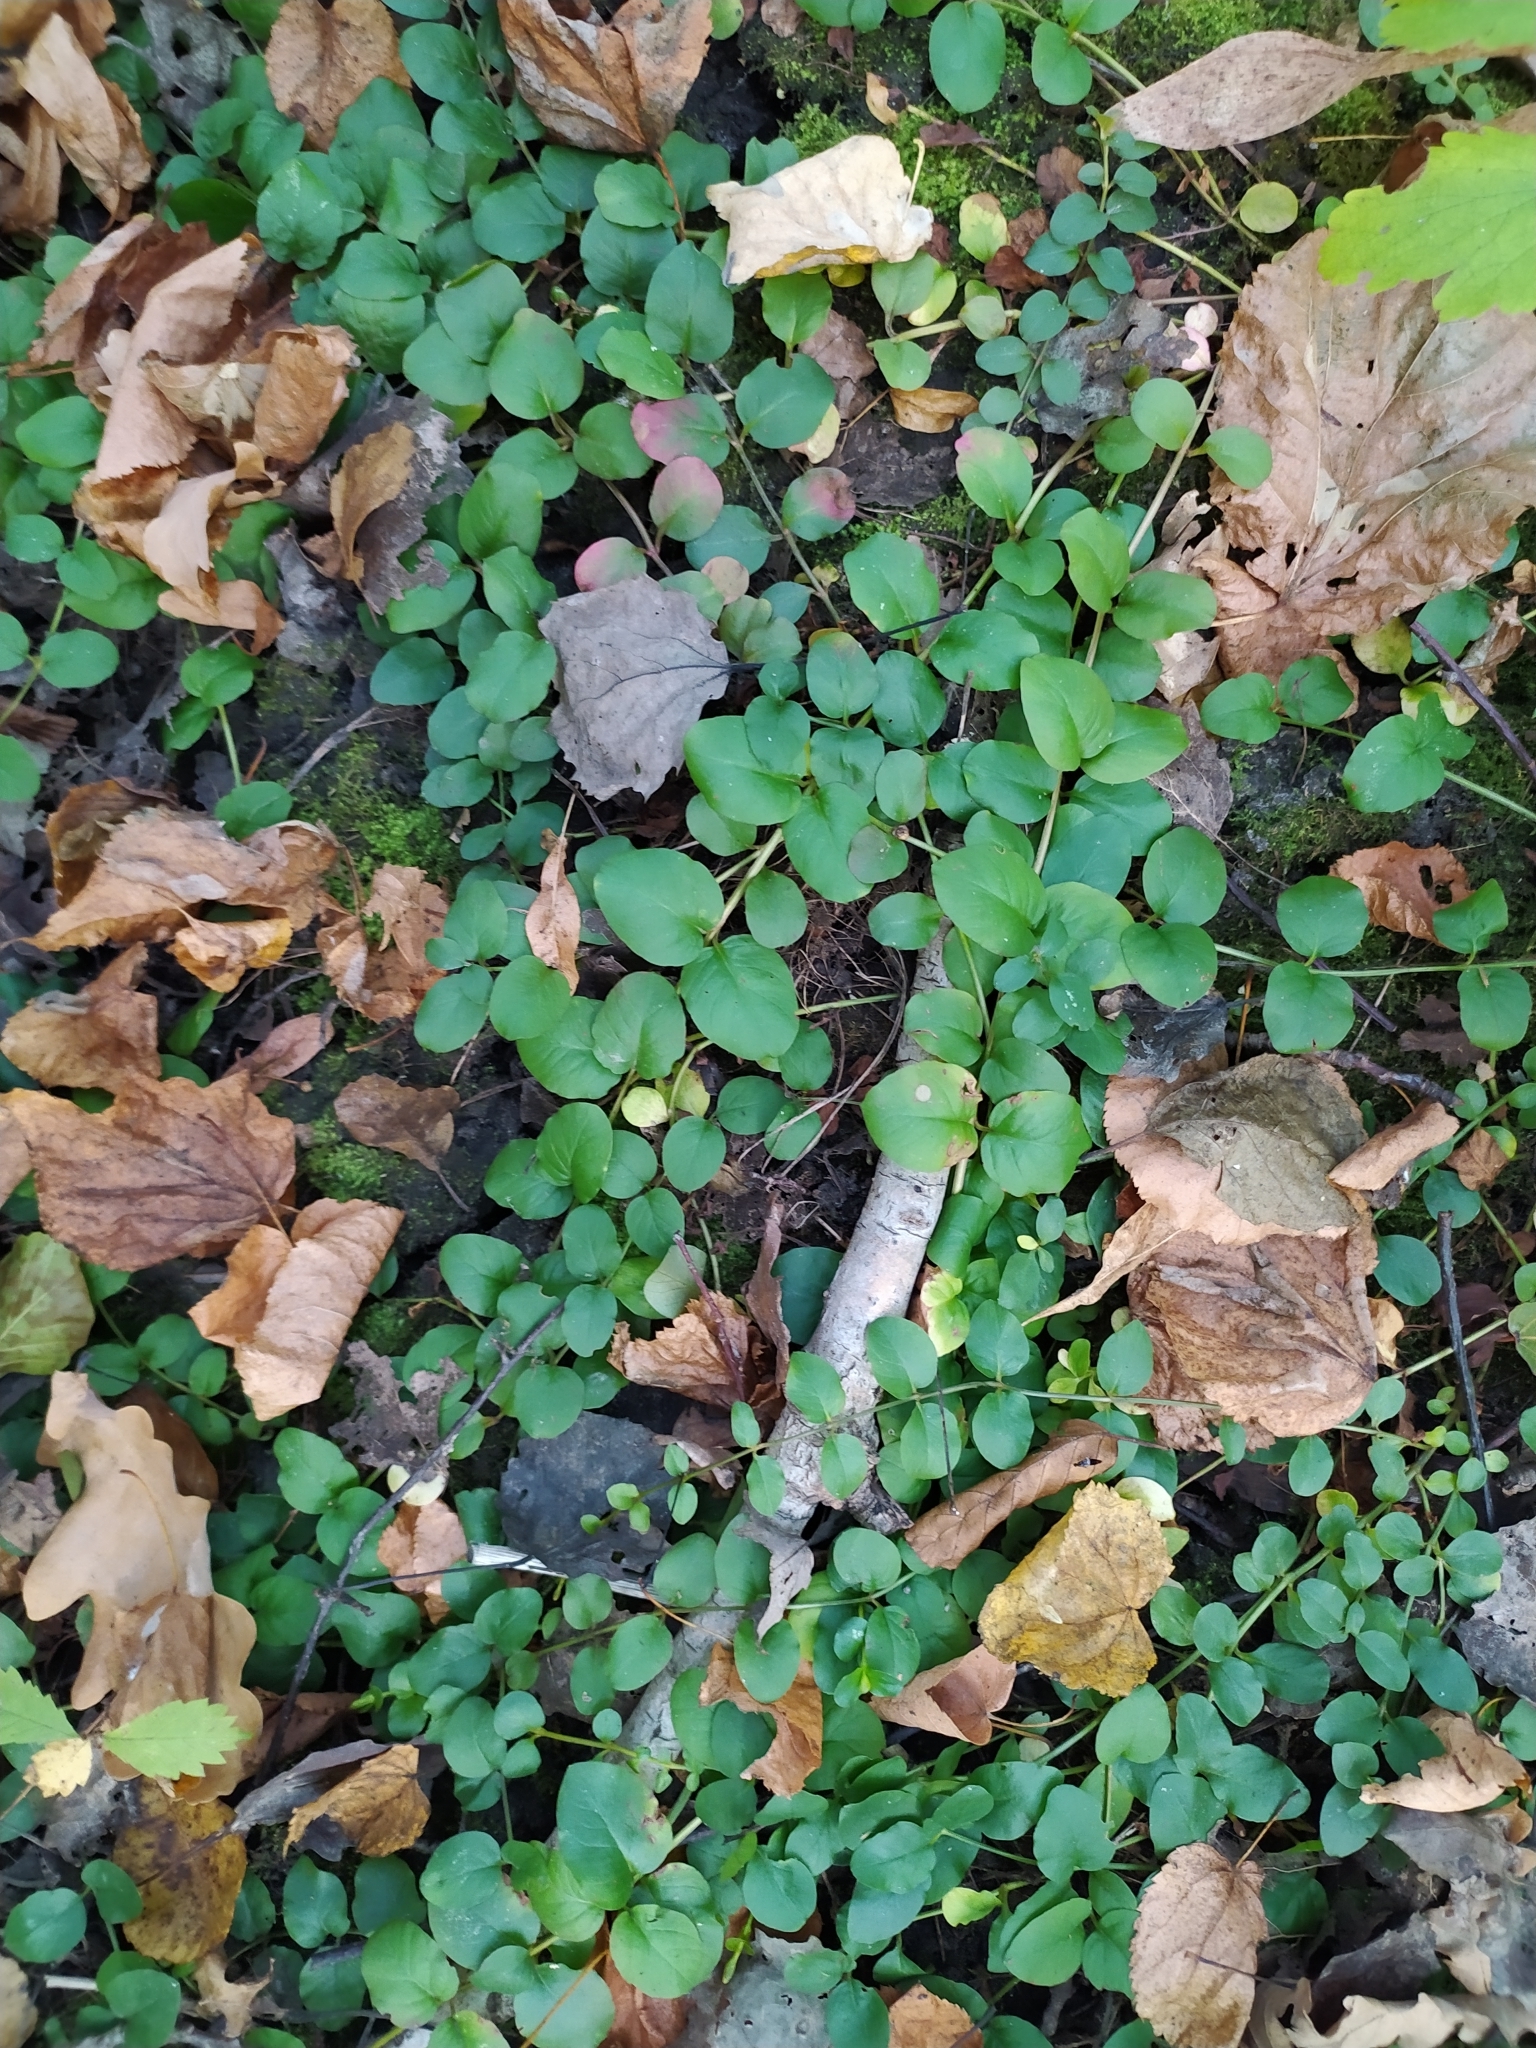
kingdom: Plantae
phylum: Tracheophyta
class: Magnoliopsida
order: Ericales
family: Primulaceae
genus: Lysimachia
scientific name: Lysimachia nummularia
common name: Moneywort
